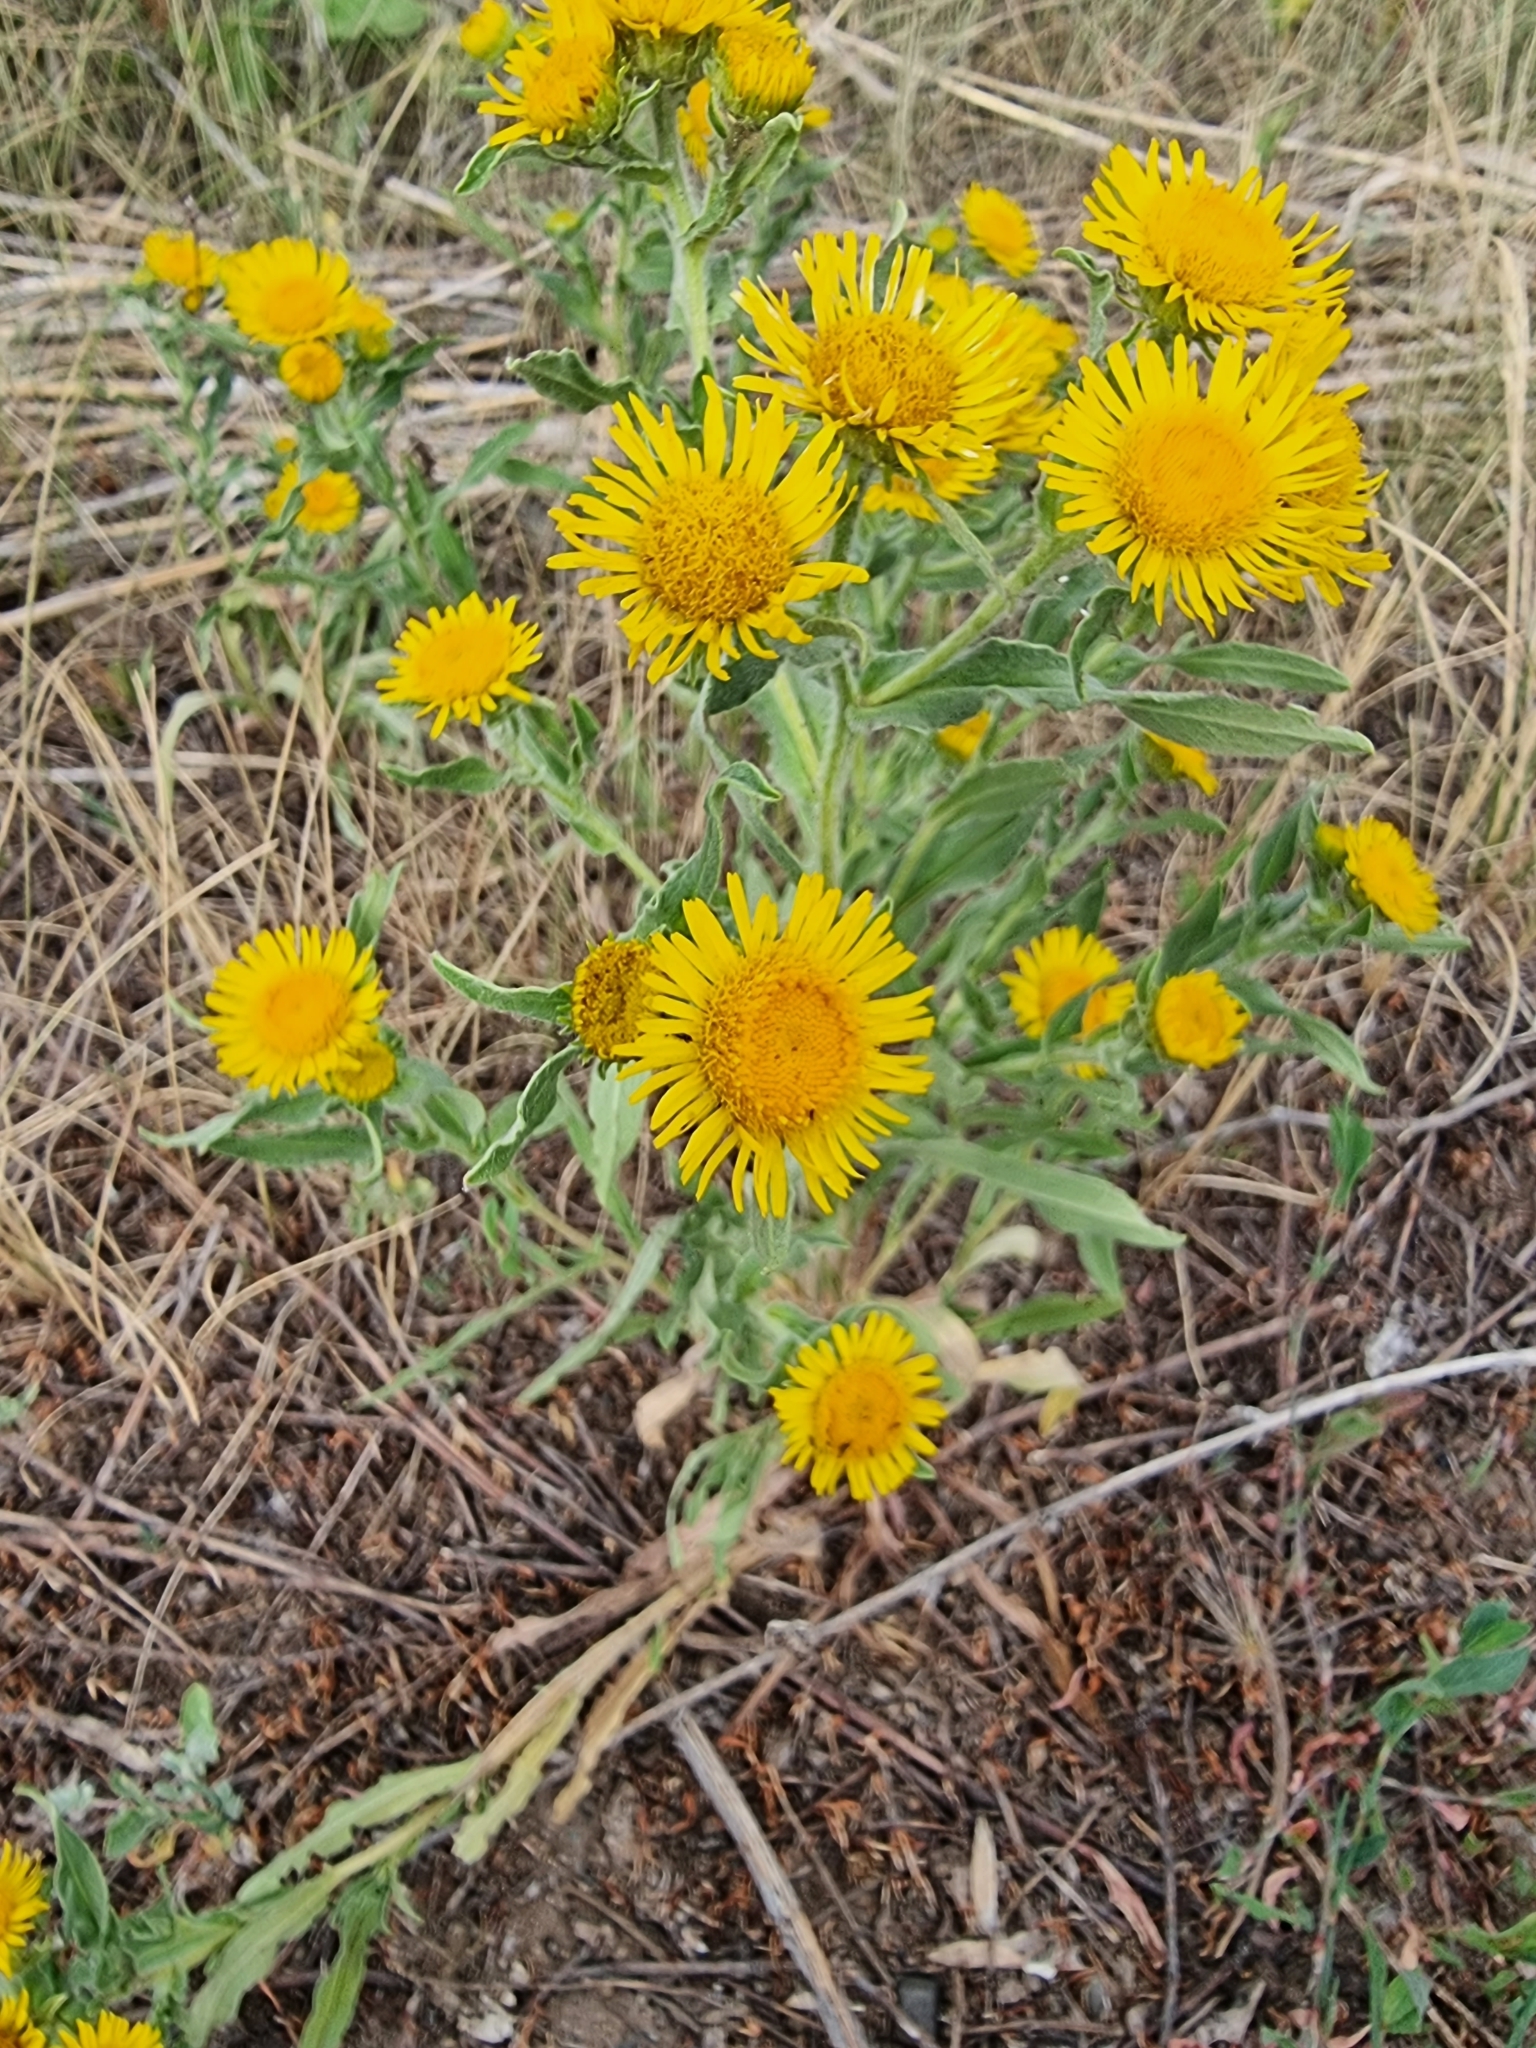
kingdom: Plantae
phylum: Tracheophyta
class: Magnoliopsida
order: Asterales
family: Asteraceae
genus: Pentanema
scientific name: Pentanema britannicum
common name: British elecampane
